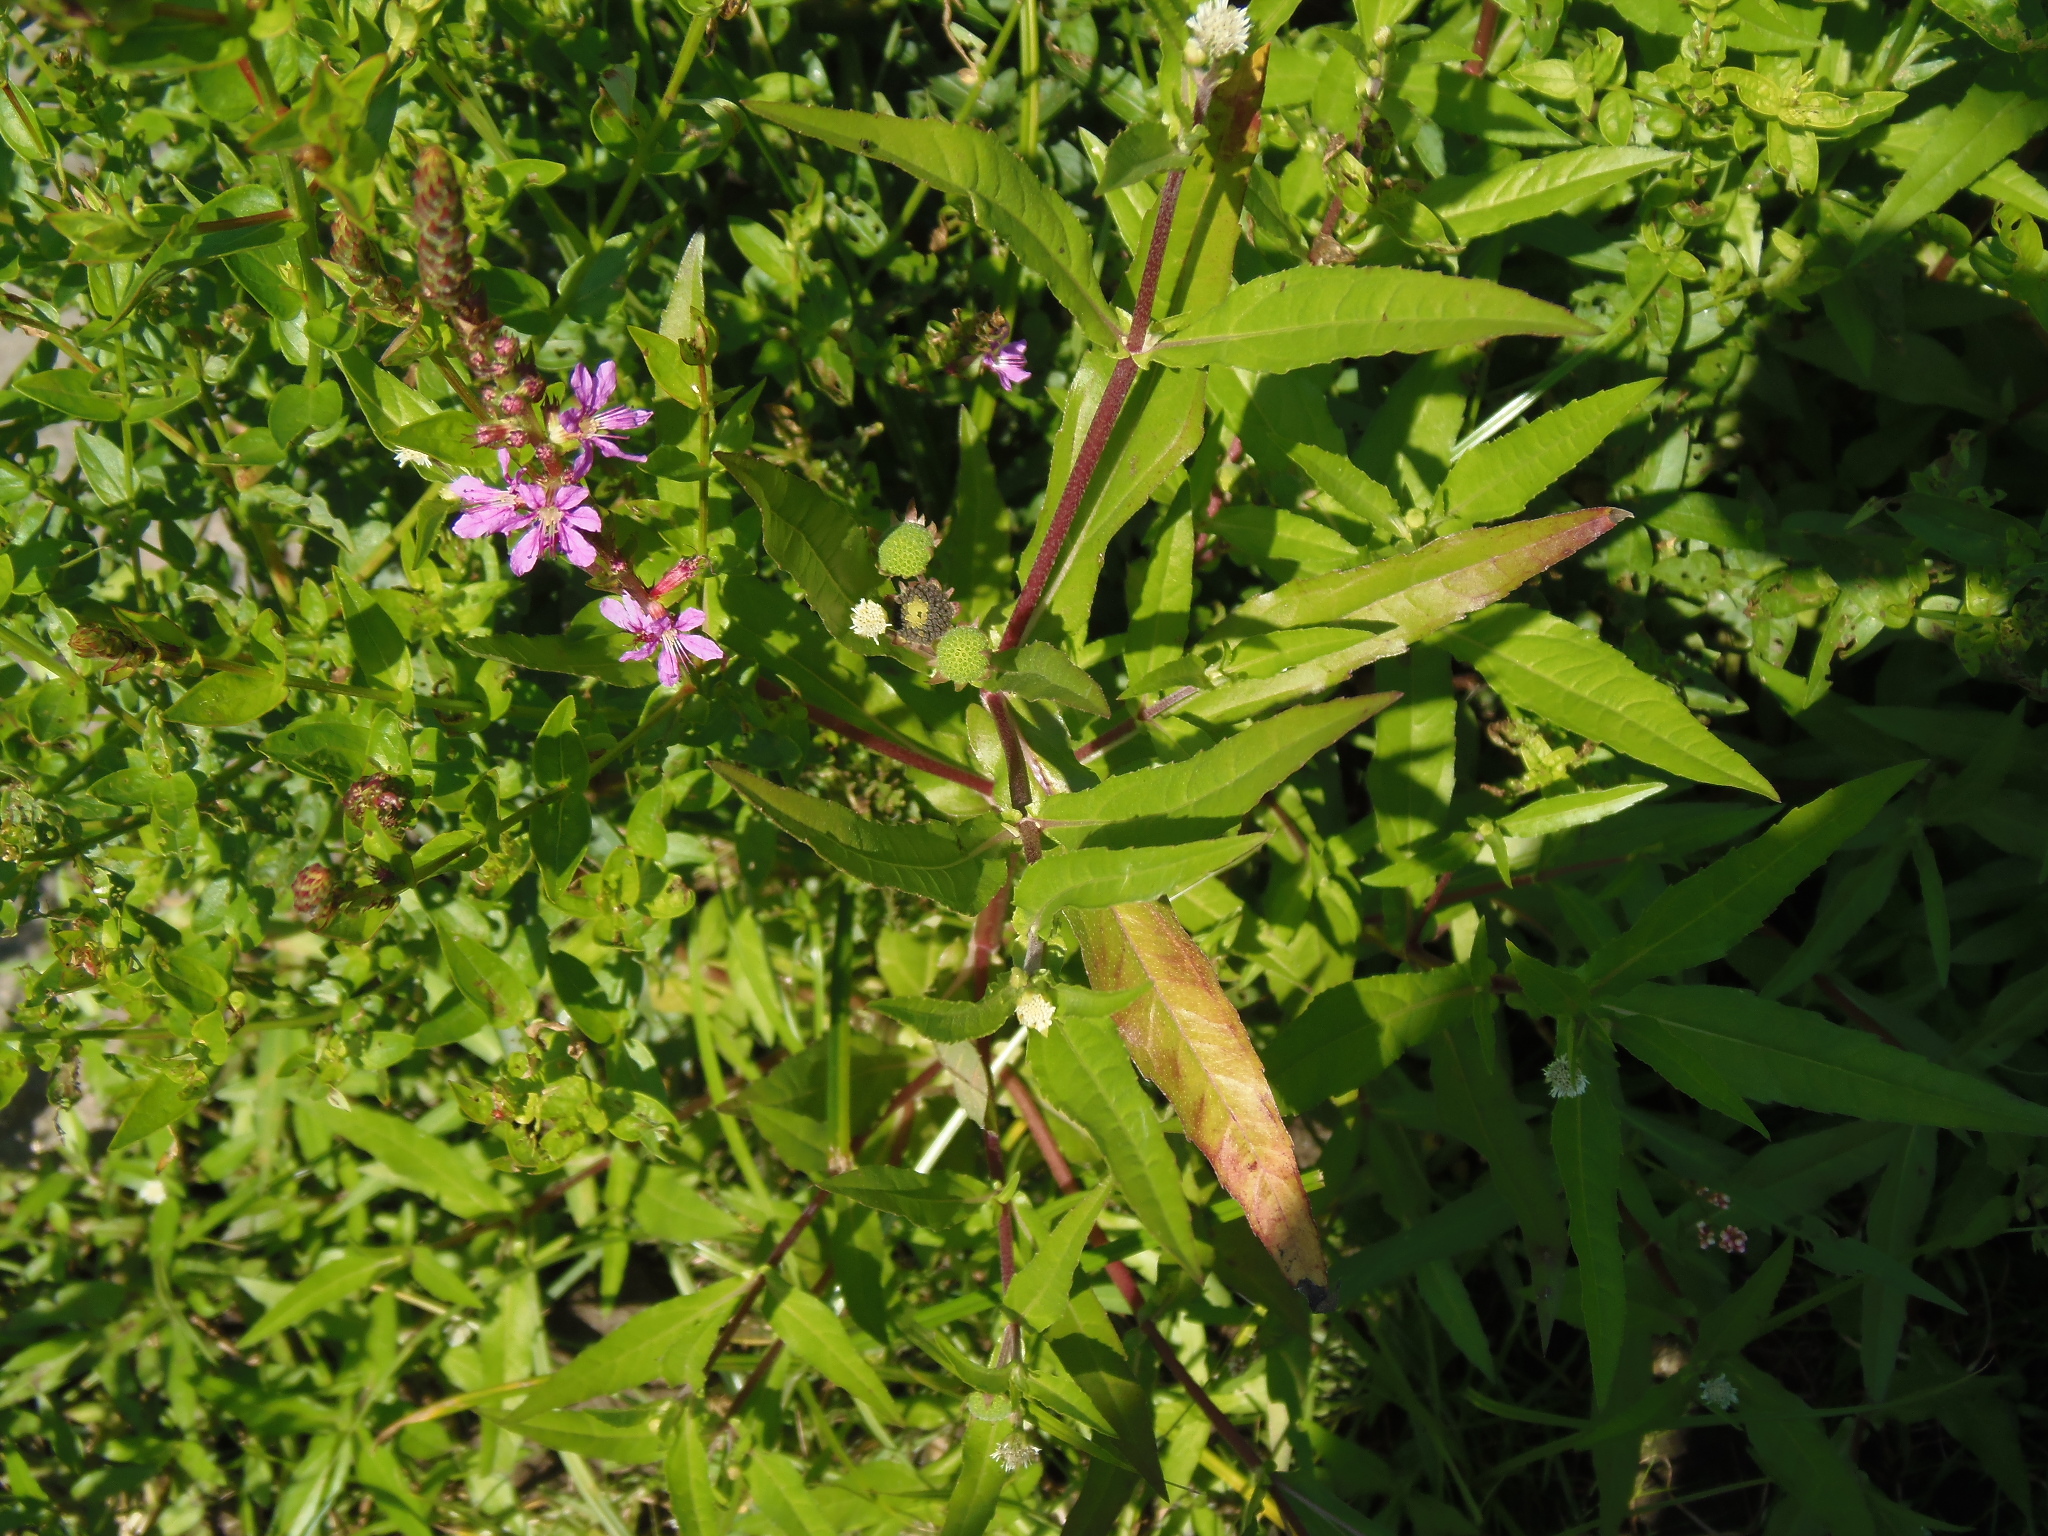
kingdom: Plantae
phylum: Tracheophyta
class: Magnoliopsida
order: Asterales
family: Asteraceae
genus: Eclipta
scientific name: Eclipta prostrata
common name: False daisy
